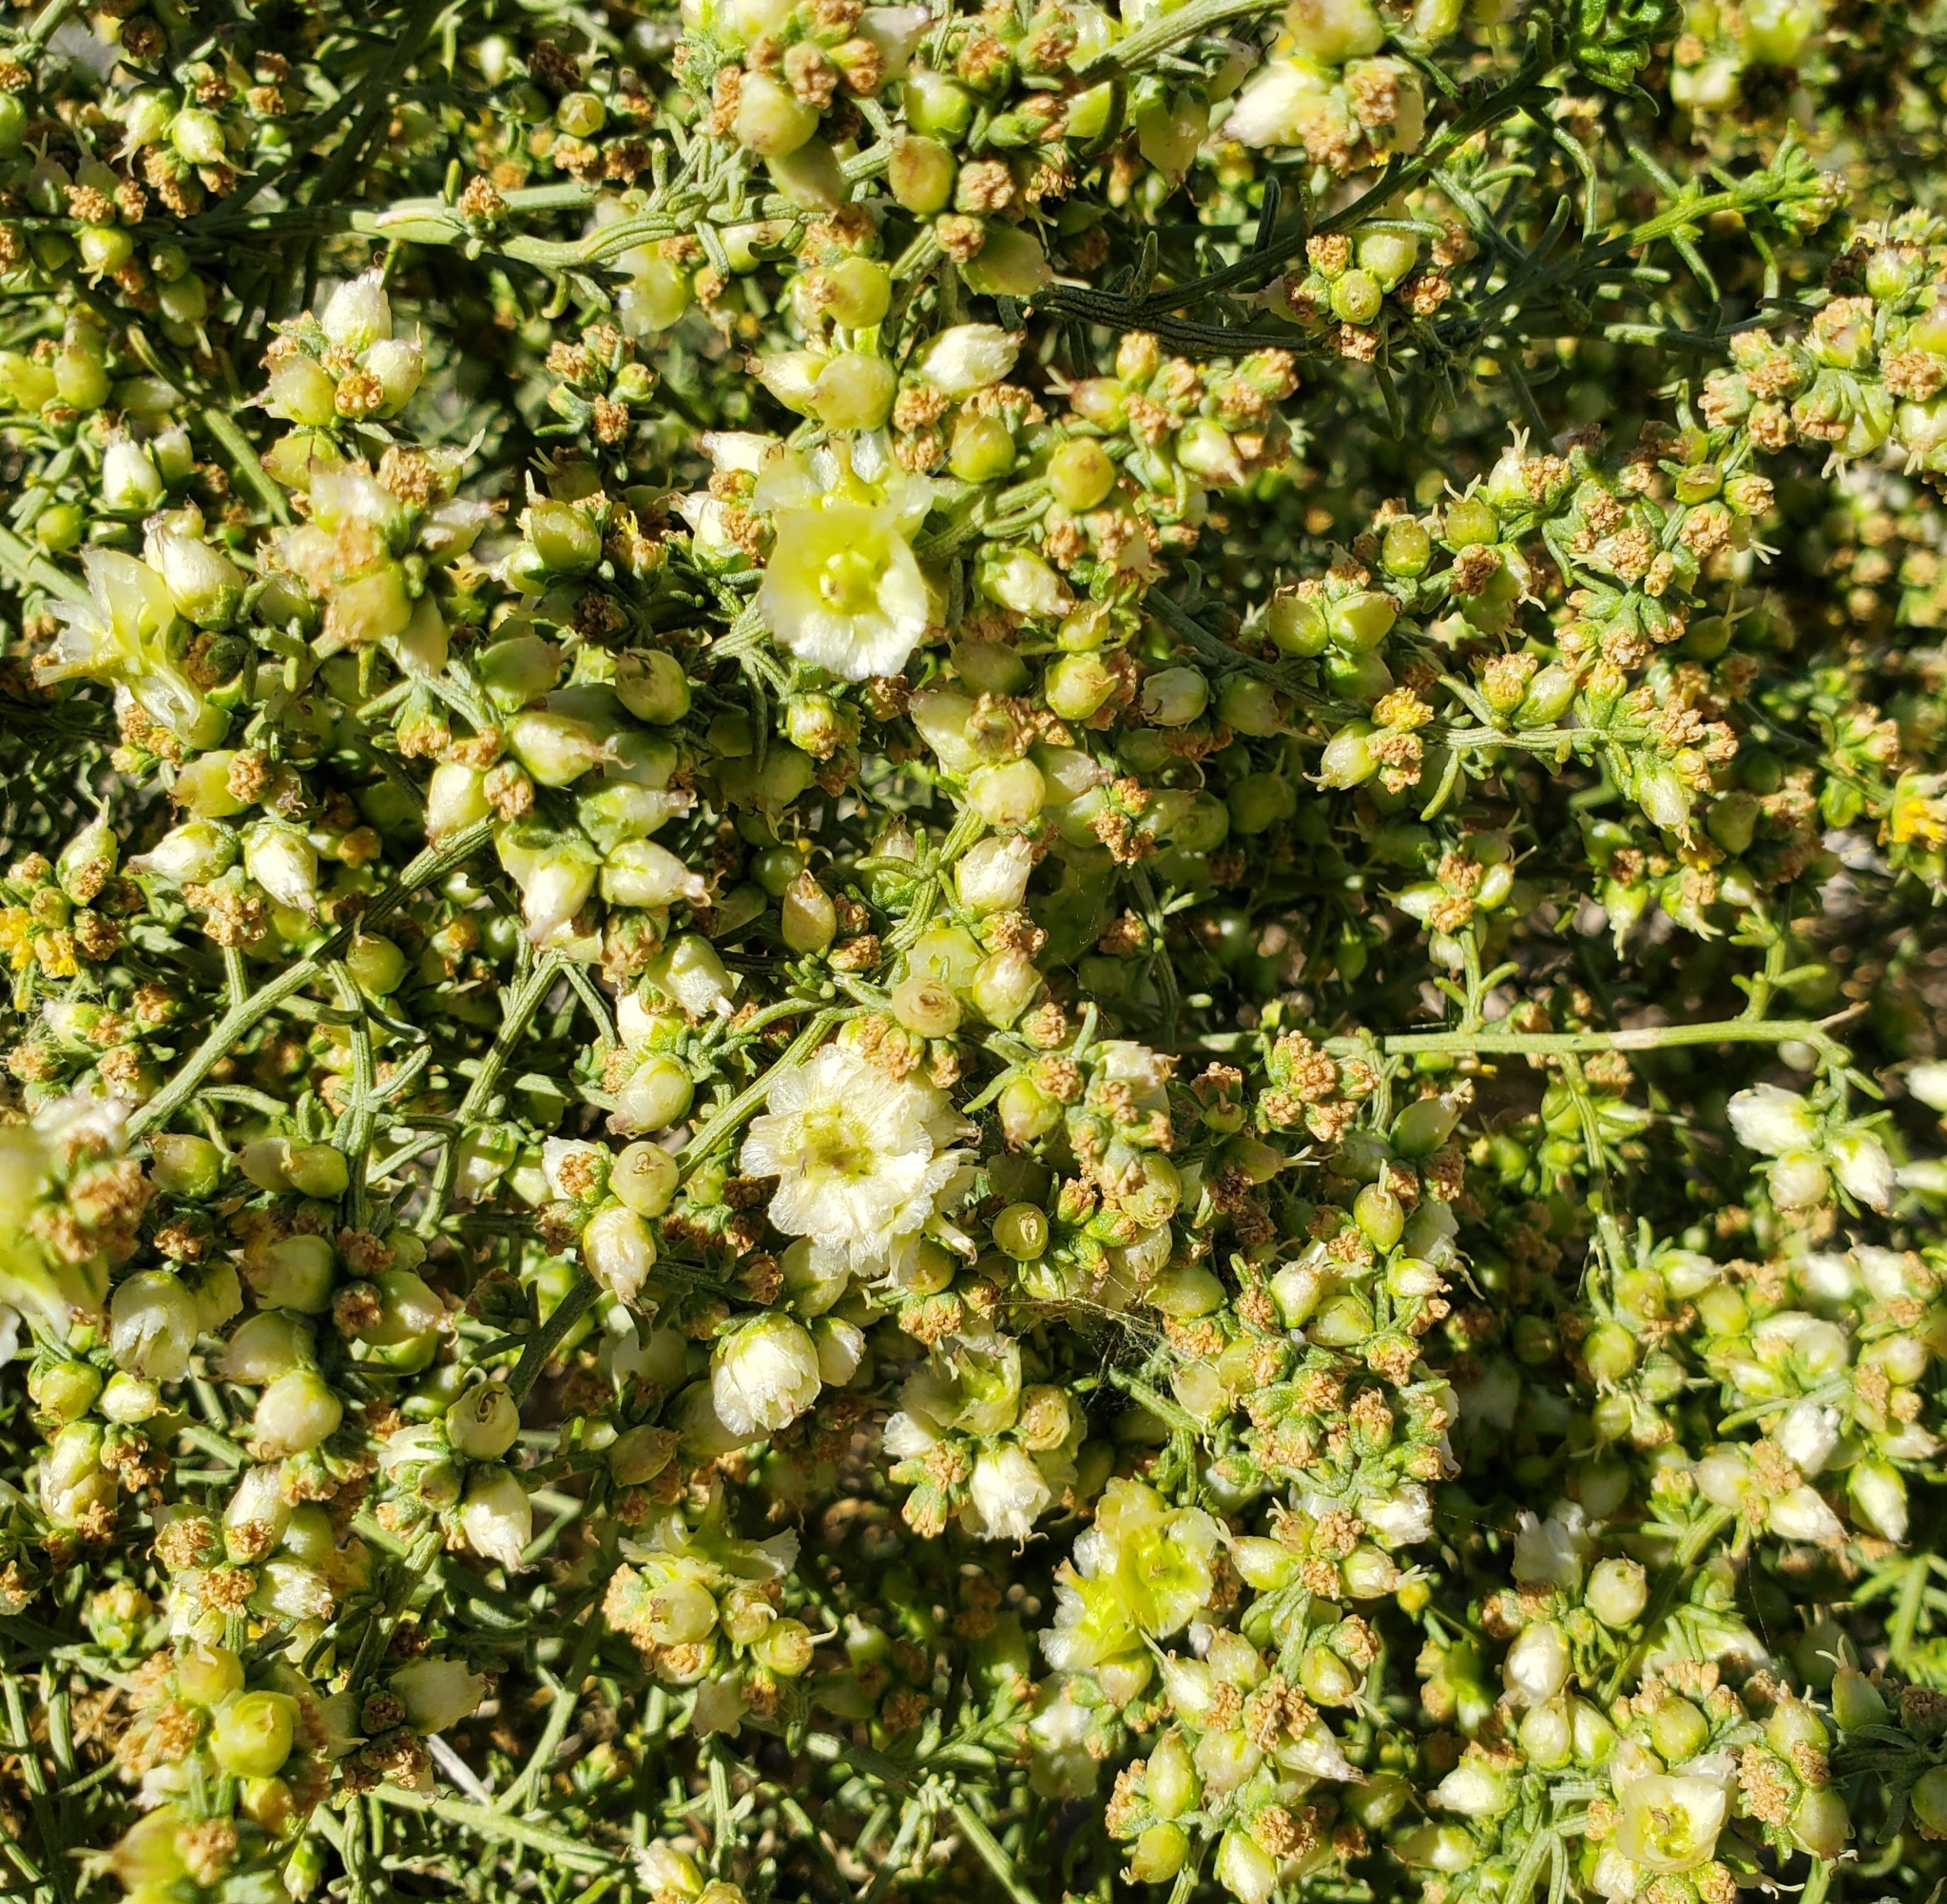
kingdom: Plantae
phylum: Tracheophyta
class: Magnoliopsida
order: Asterales
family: Asteraceae
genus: Ambrosia
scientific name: Ambrosia salsola
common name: Burrobrush
